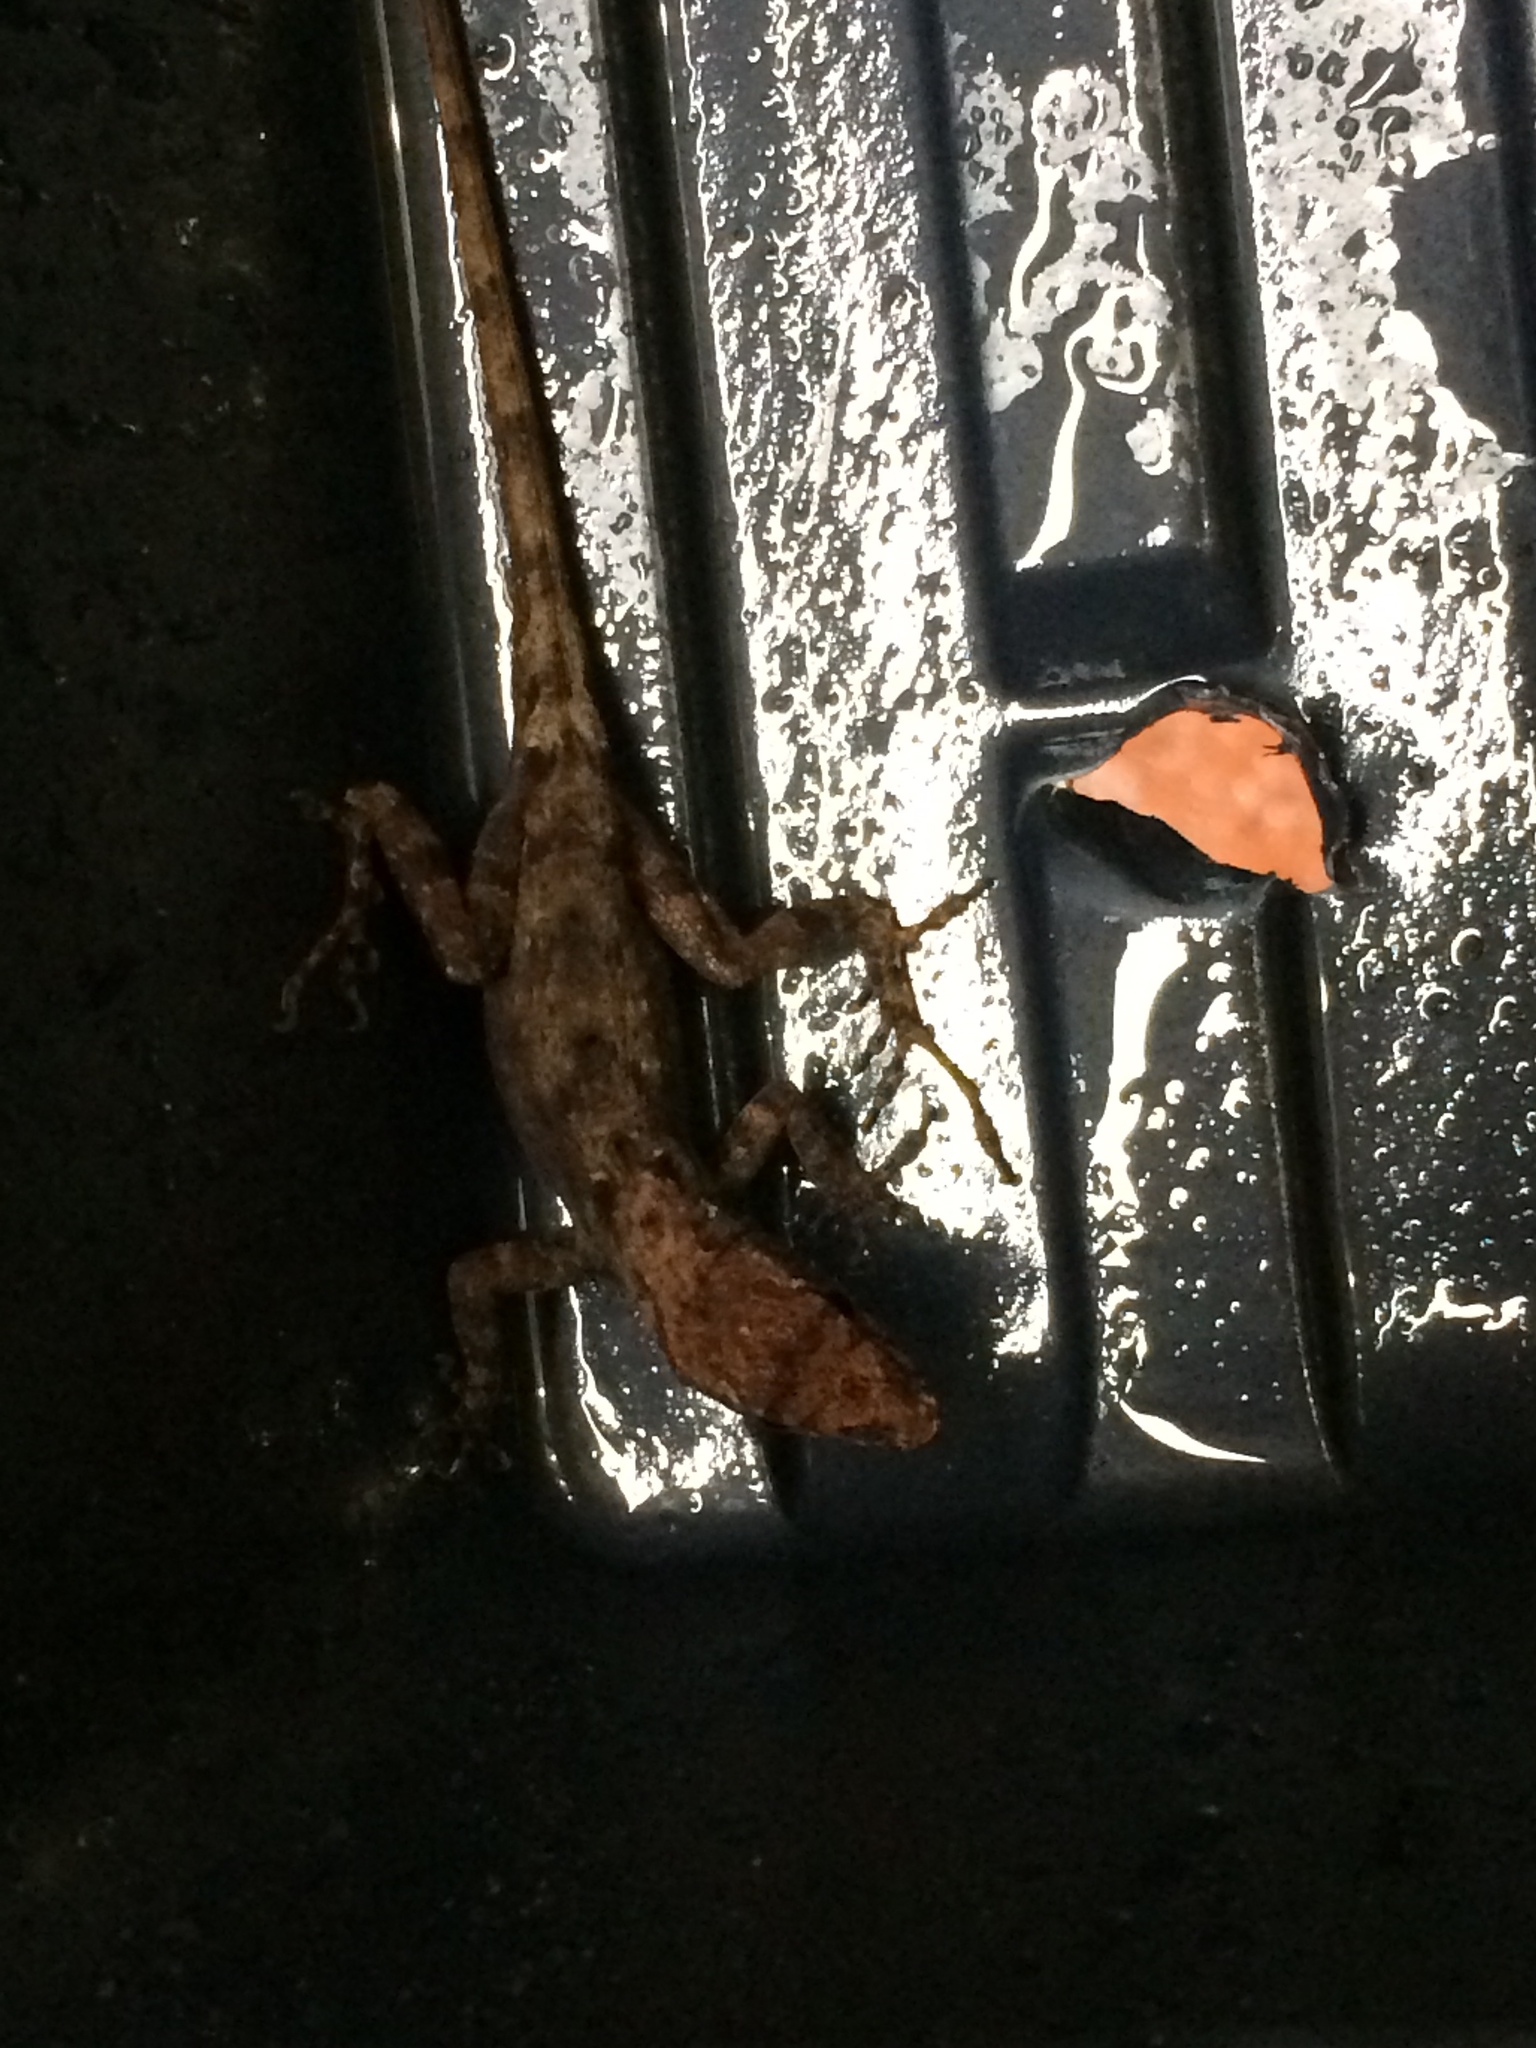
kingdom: Animalia
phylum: Chordata
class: Squamata
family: Dactyloidae
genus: Anolis
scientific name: Anolis sagrei
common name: Brown anole
